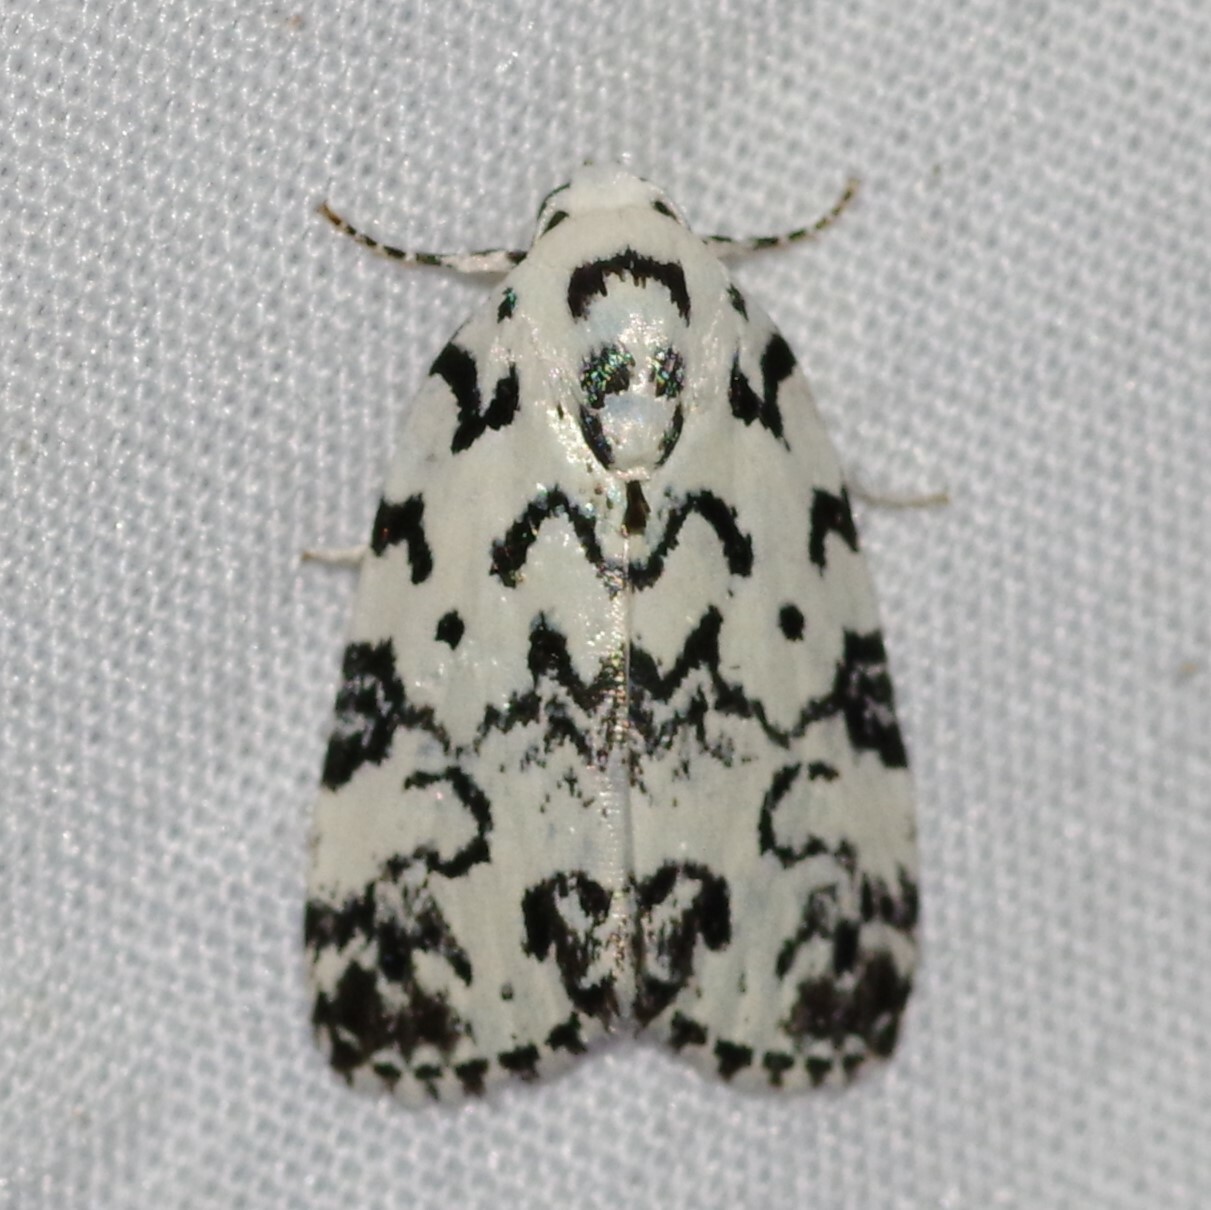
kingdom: Animalia
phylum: Arthropoda
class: Insecta
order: Lepidoptera
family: Noctuidae
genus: Polygrammate
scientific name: Polygrammate hebraeicum
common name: Hebrew moth
